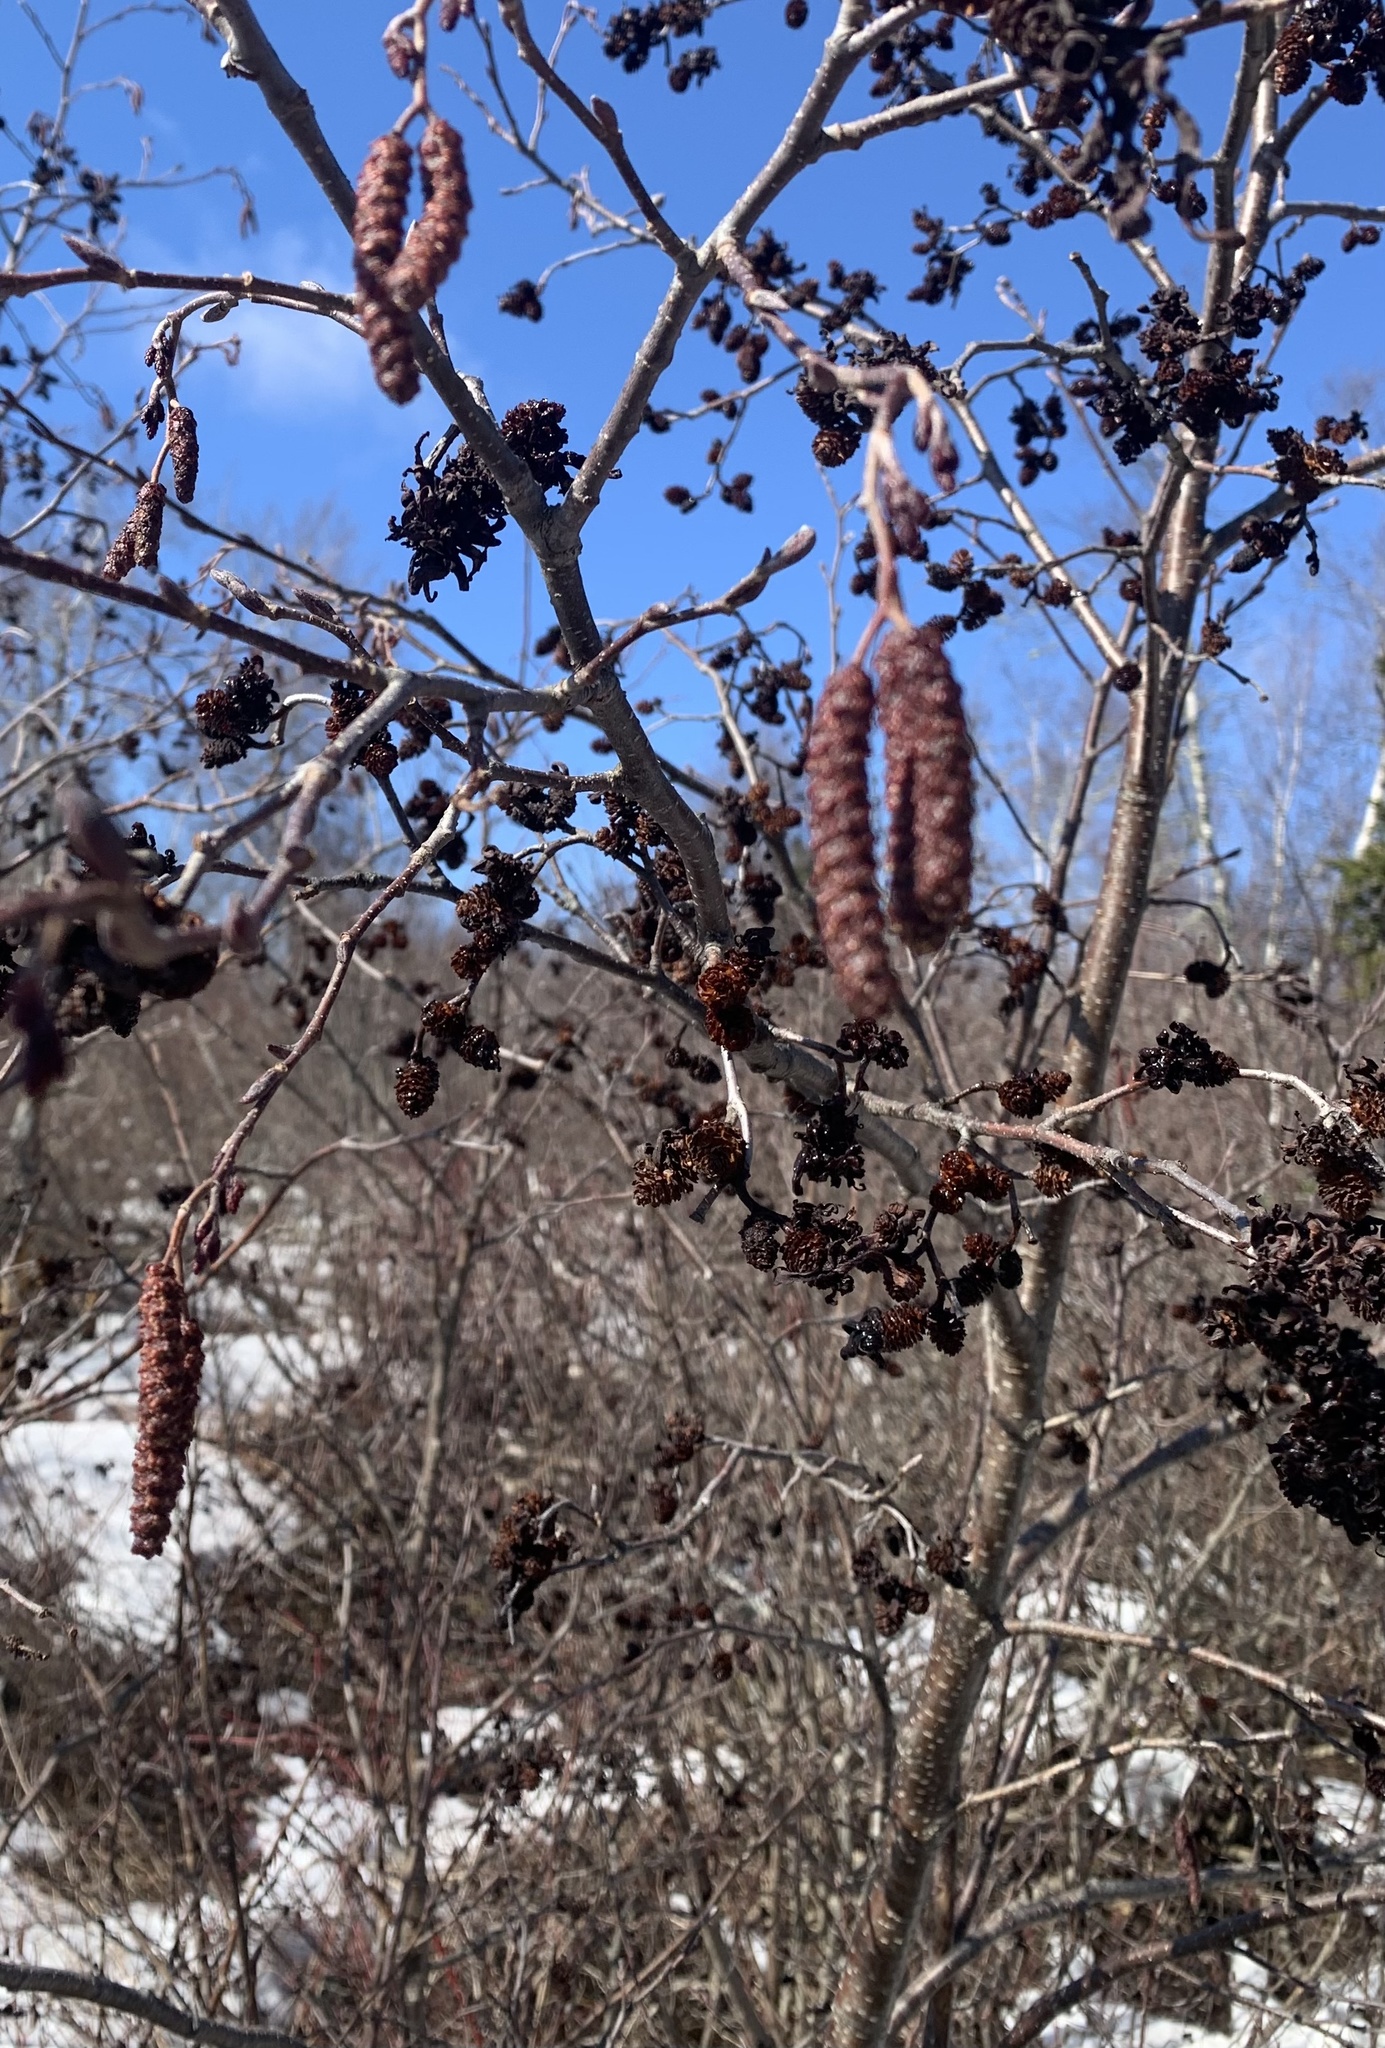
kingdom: Plantae
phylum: Tracheophyta
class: Magnoliopsida
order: Fagales
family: Betulaceae
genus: Alnus
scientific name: Alnus incana
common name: Grey alder
